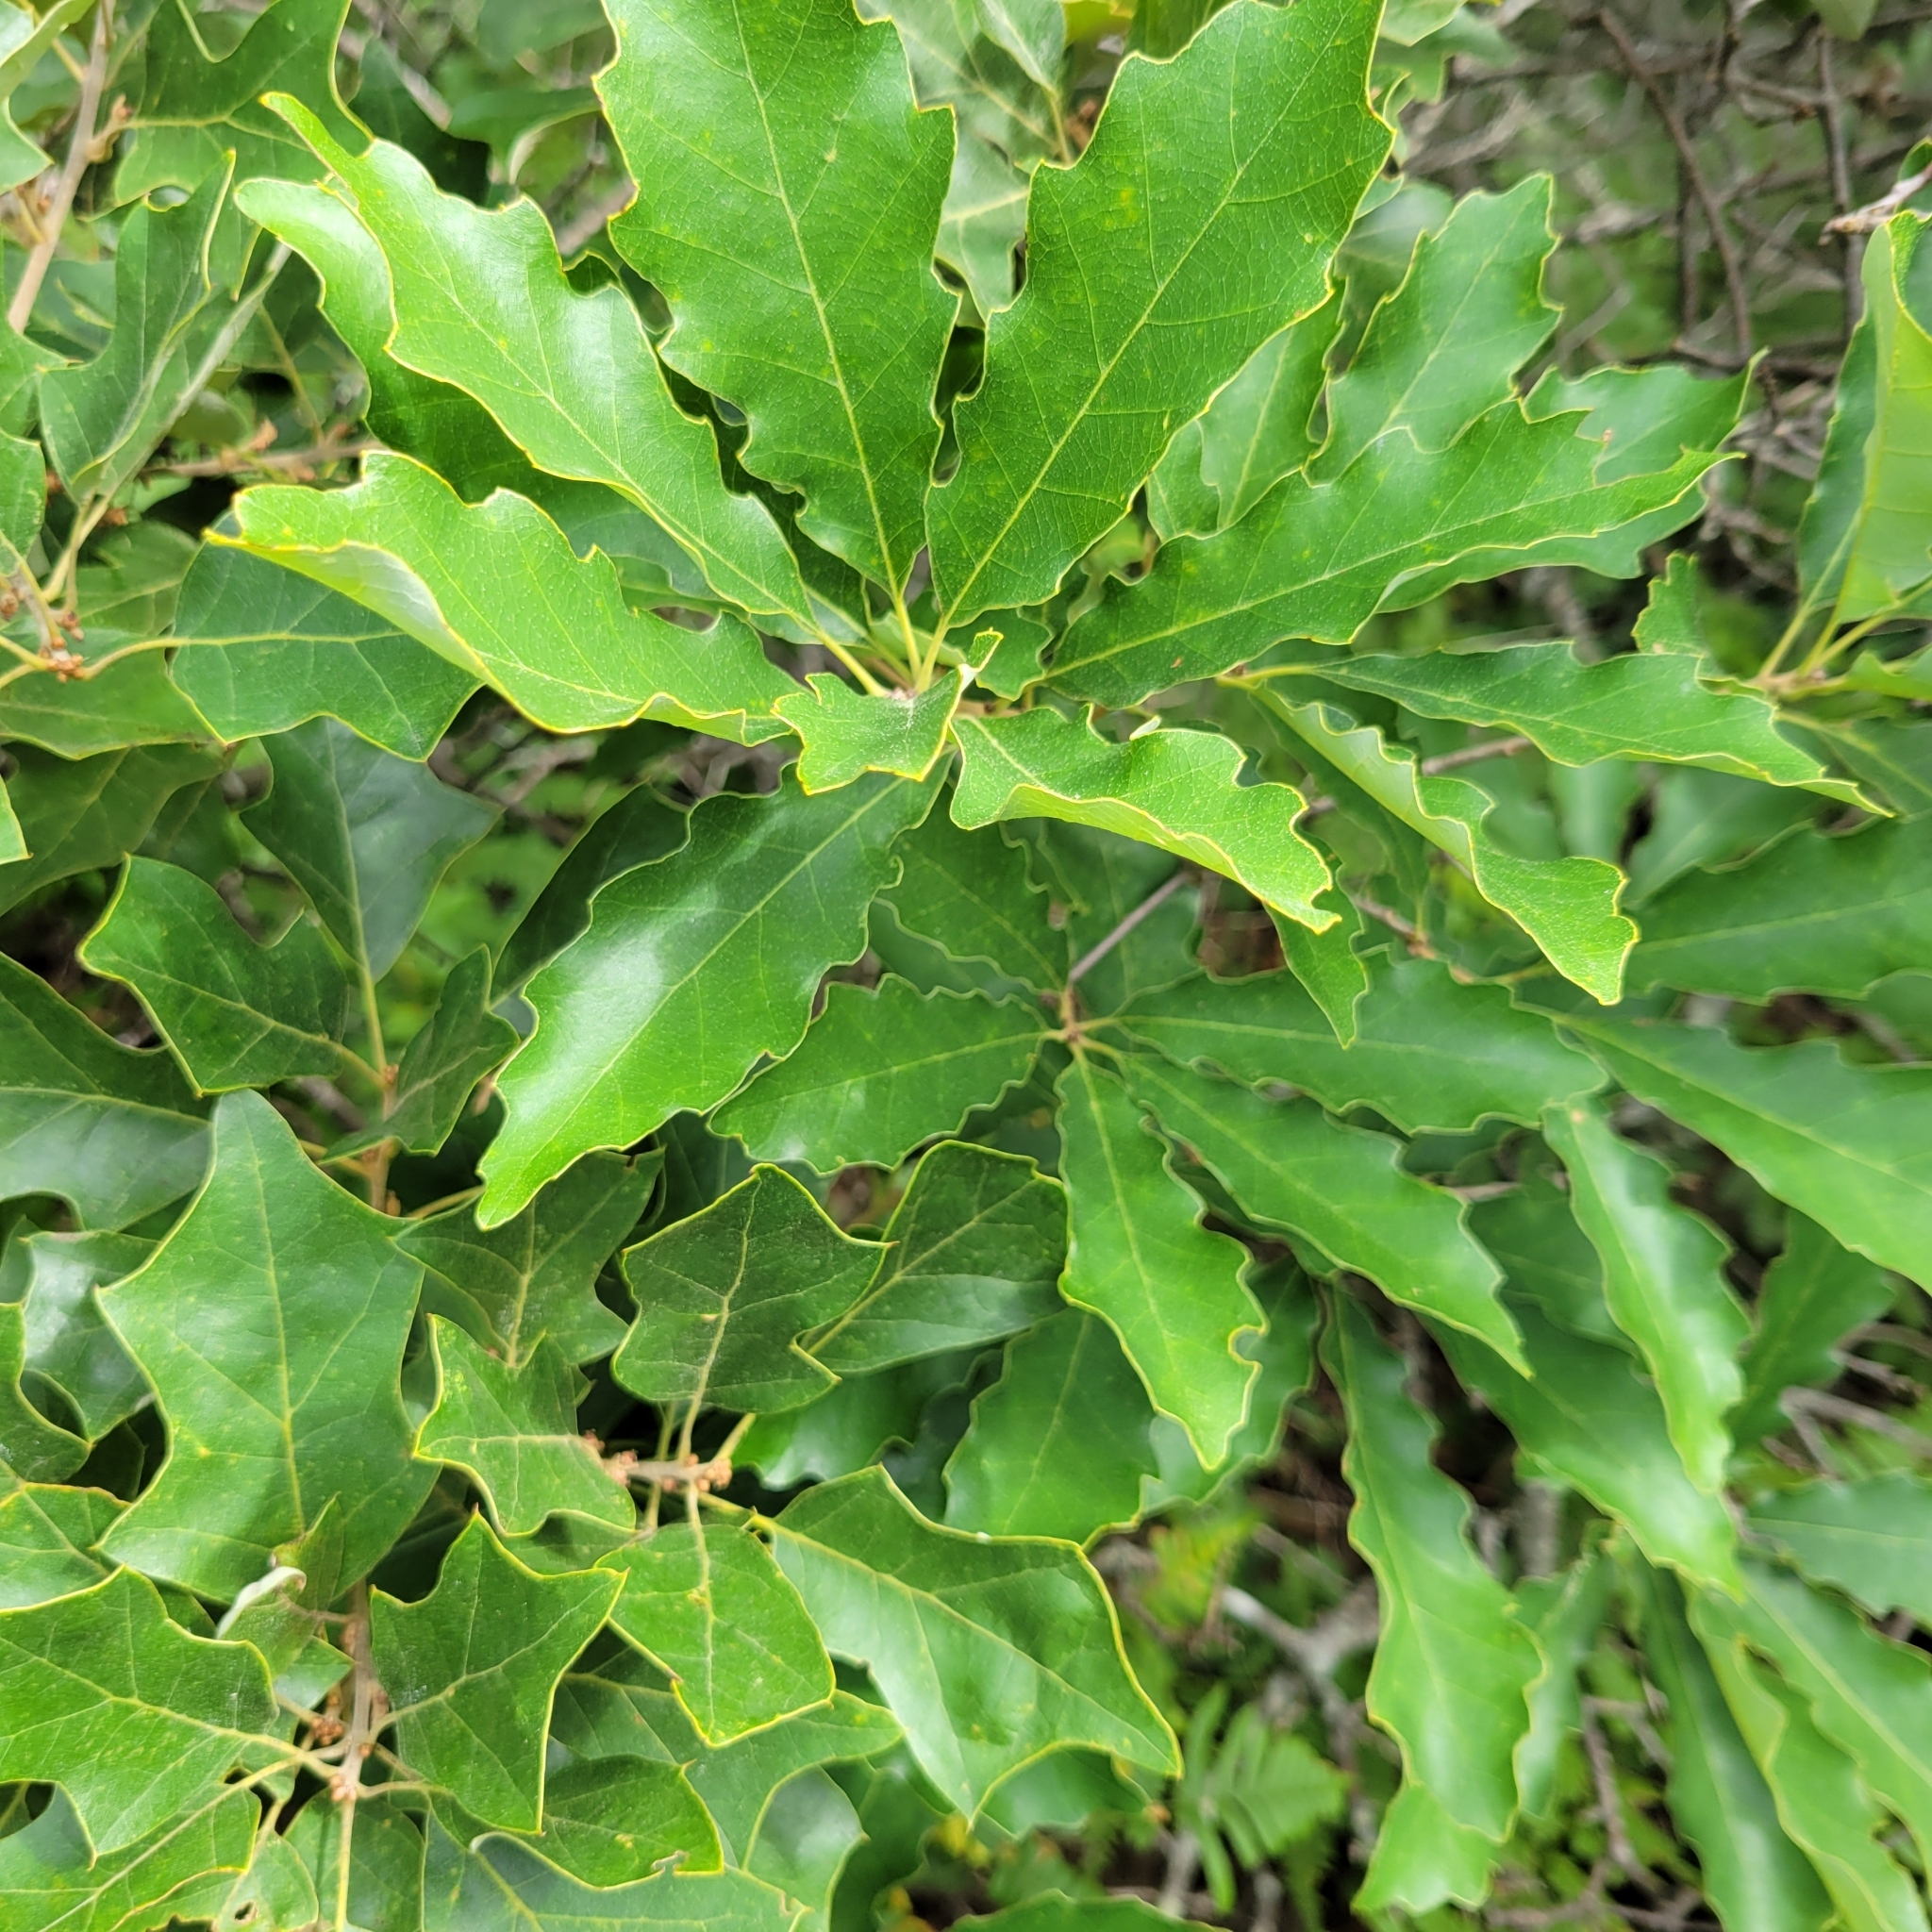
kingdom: Plantae
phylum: Tracheophyta
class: Magnoliopsida
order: Fagales
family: Fagaceae
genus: Quercus
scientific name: Quercus prinoides
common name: Dwarf chinkapin oak
